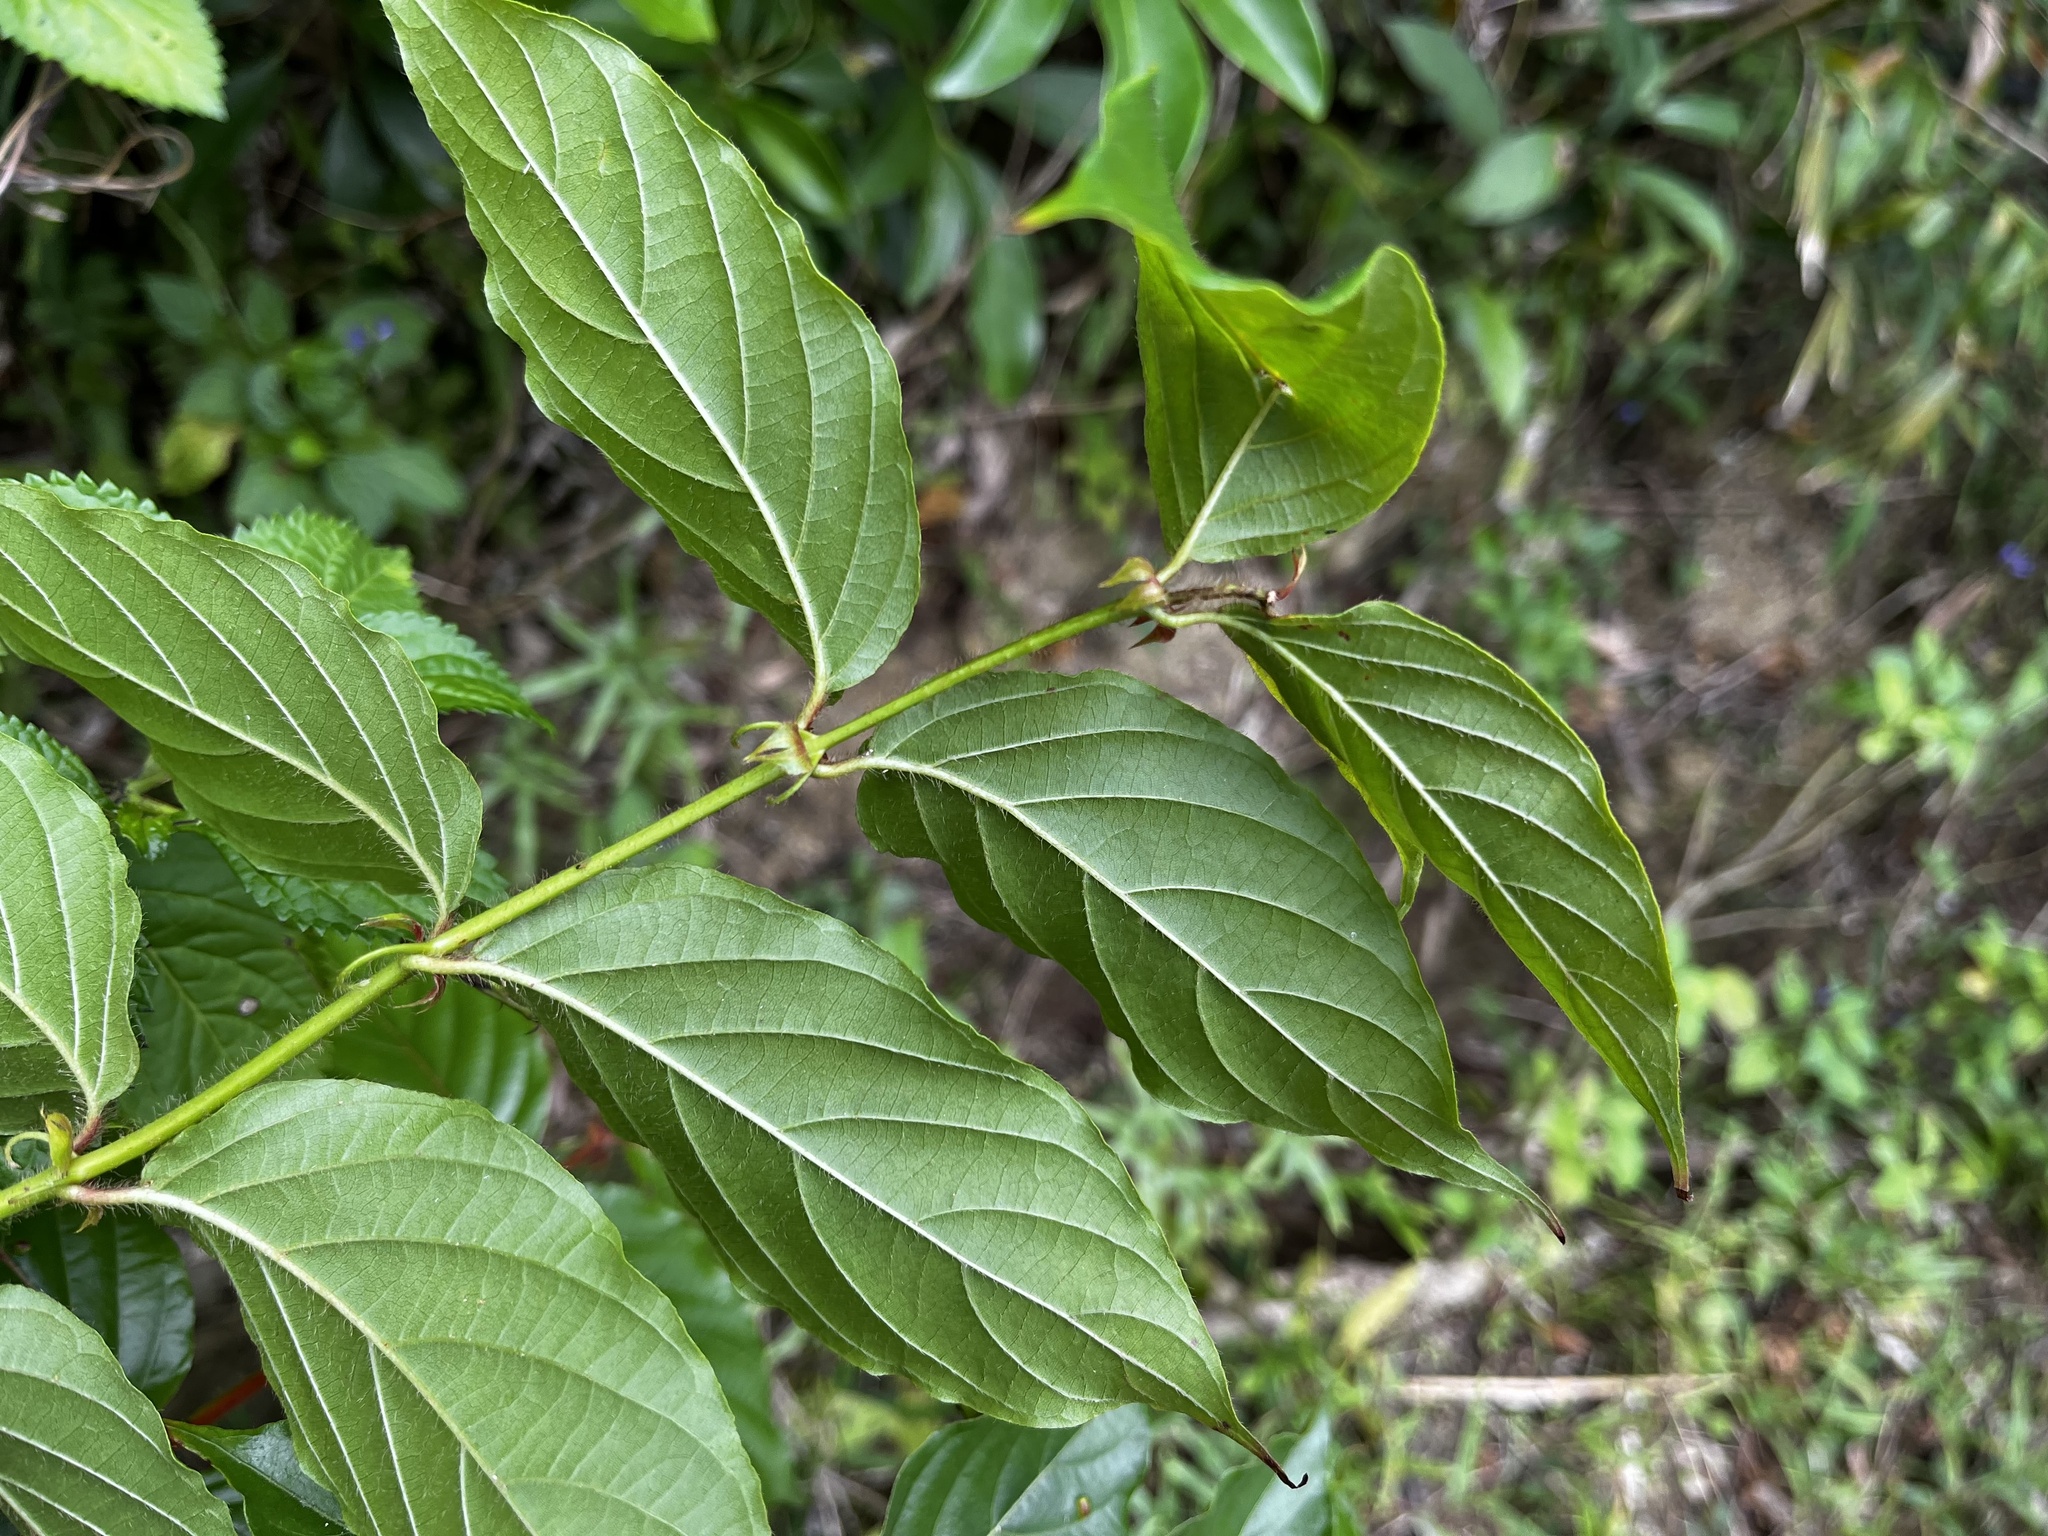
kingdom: Plantae
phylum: Tracheophyta
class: Magnoliopsida
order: Gentianales
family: Rubiaceae
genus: Uncaria
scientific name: Uncaria lanosa
